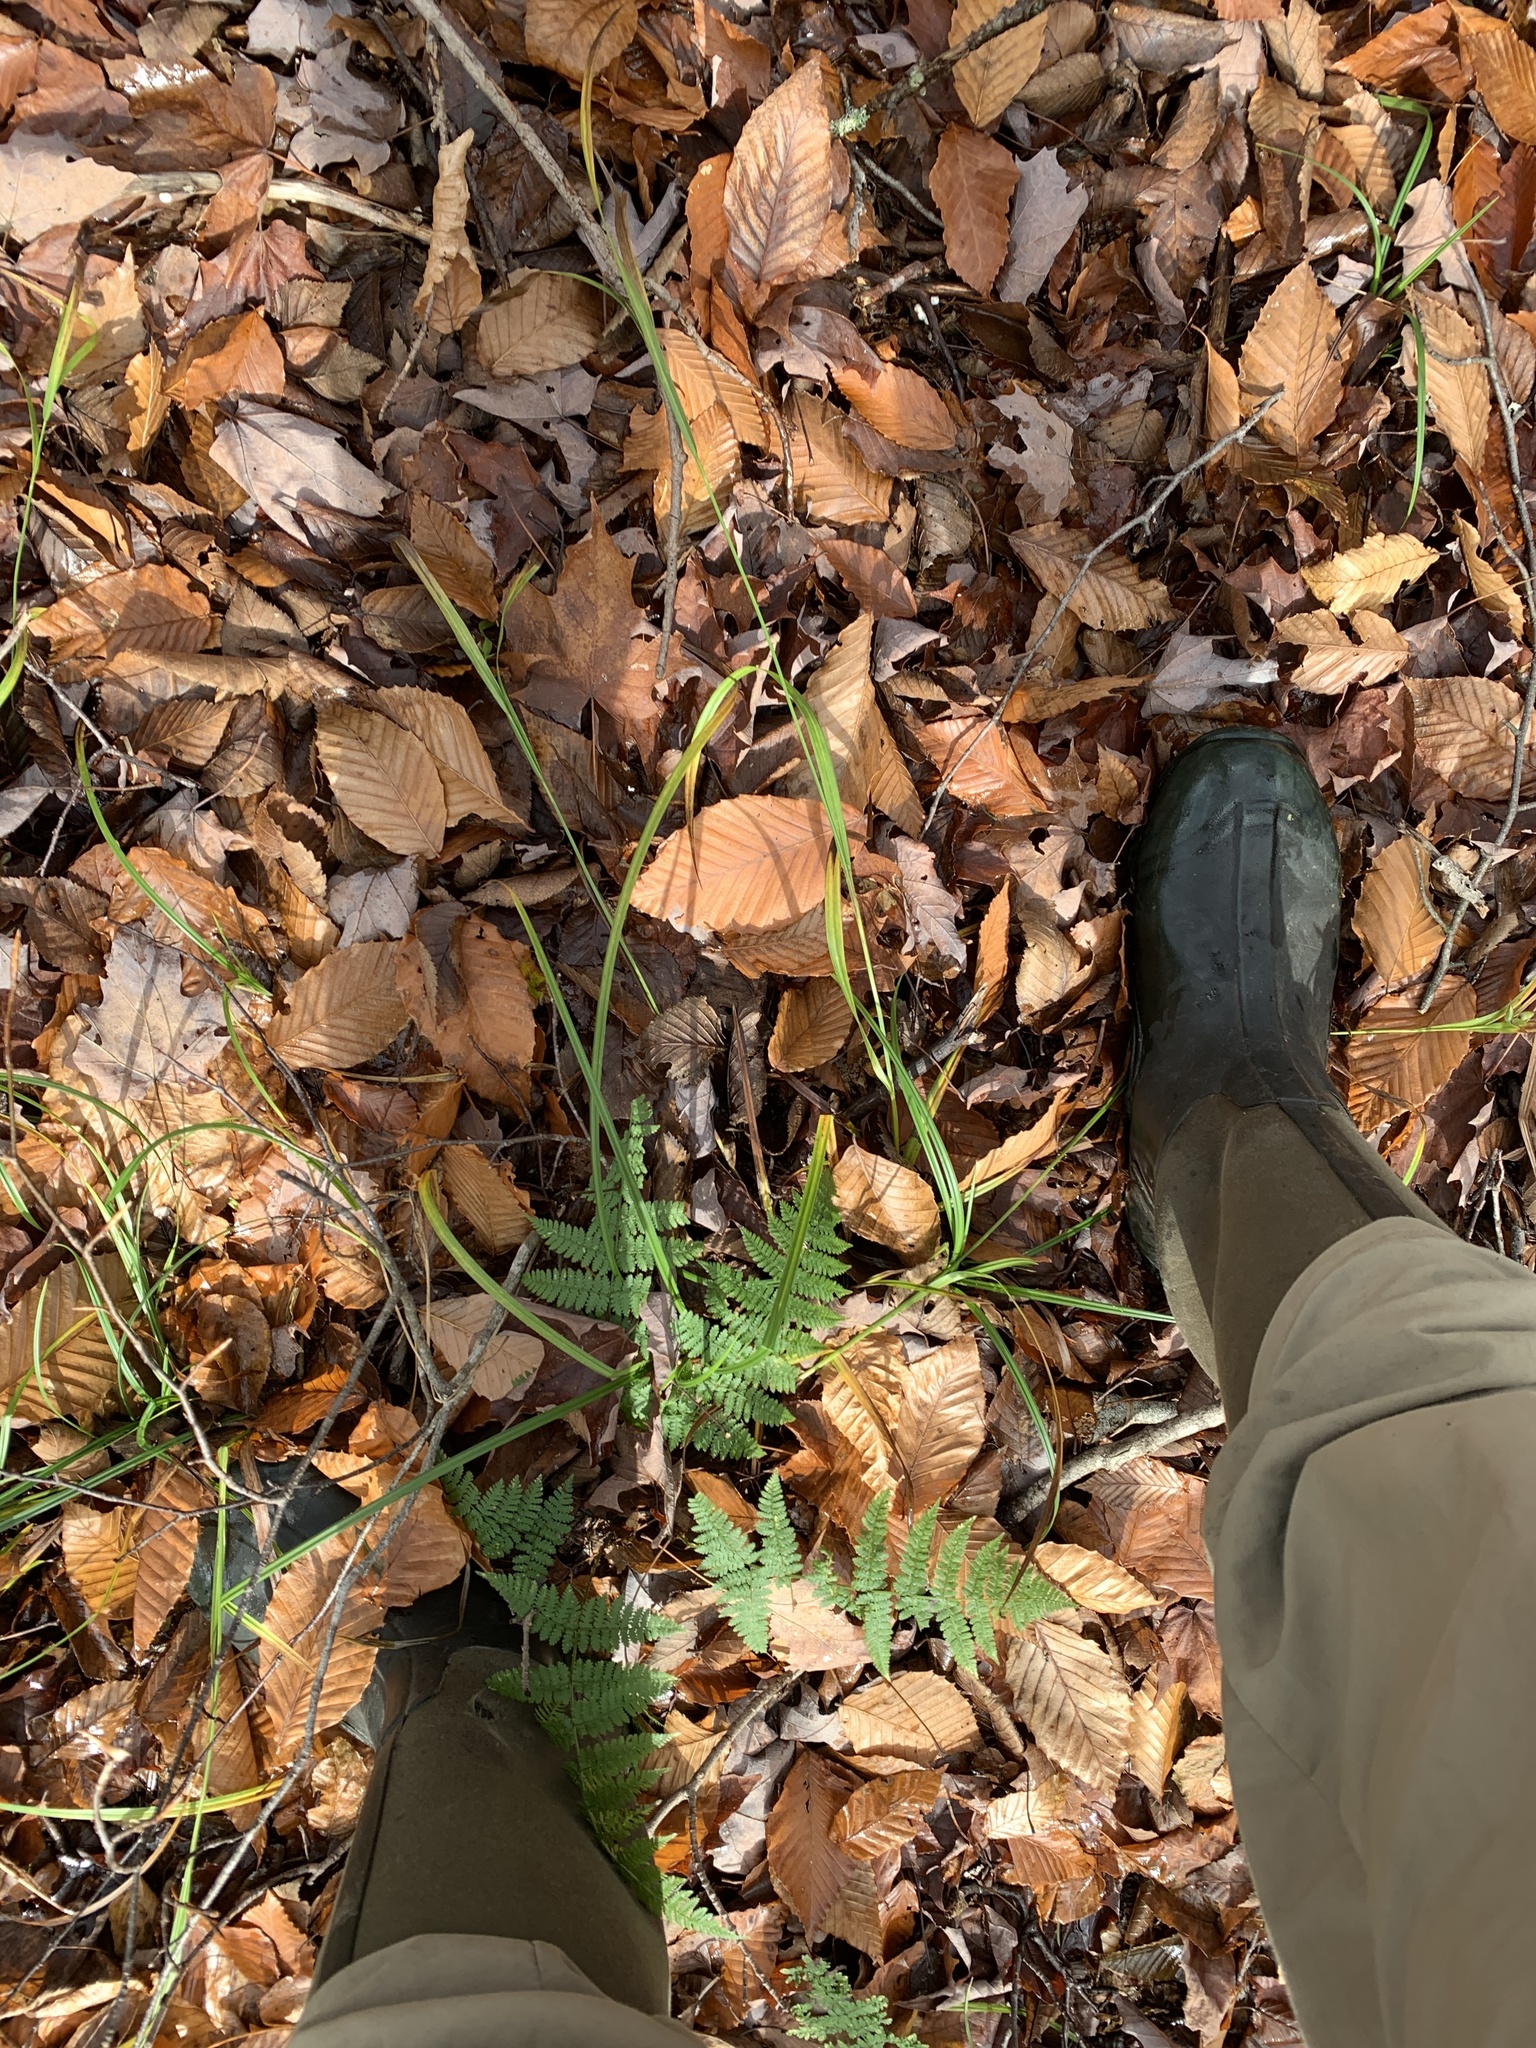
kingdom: Plantae
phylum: Tracheophyta
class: Liliopsida
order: Poales
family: Cyperaceae
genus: Carex
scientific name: Carex intumescens
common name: Greater bladder sedge
